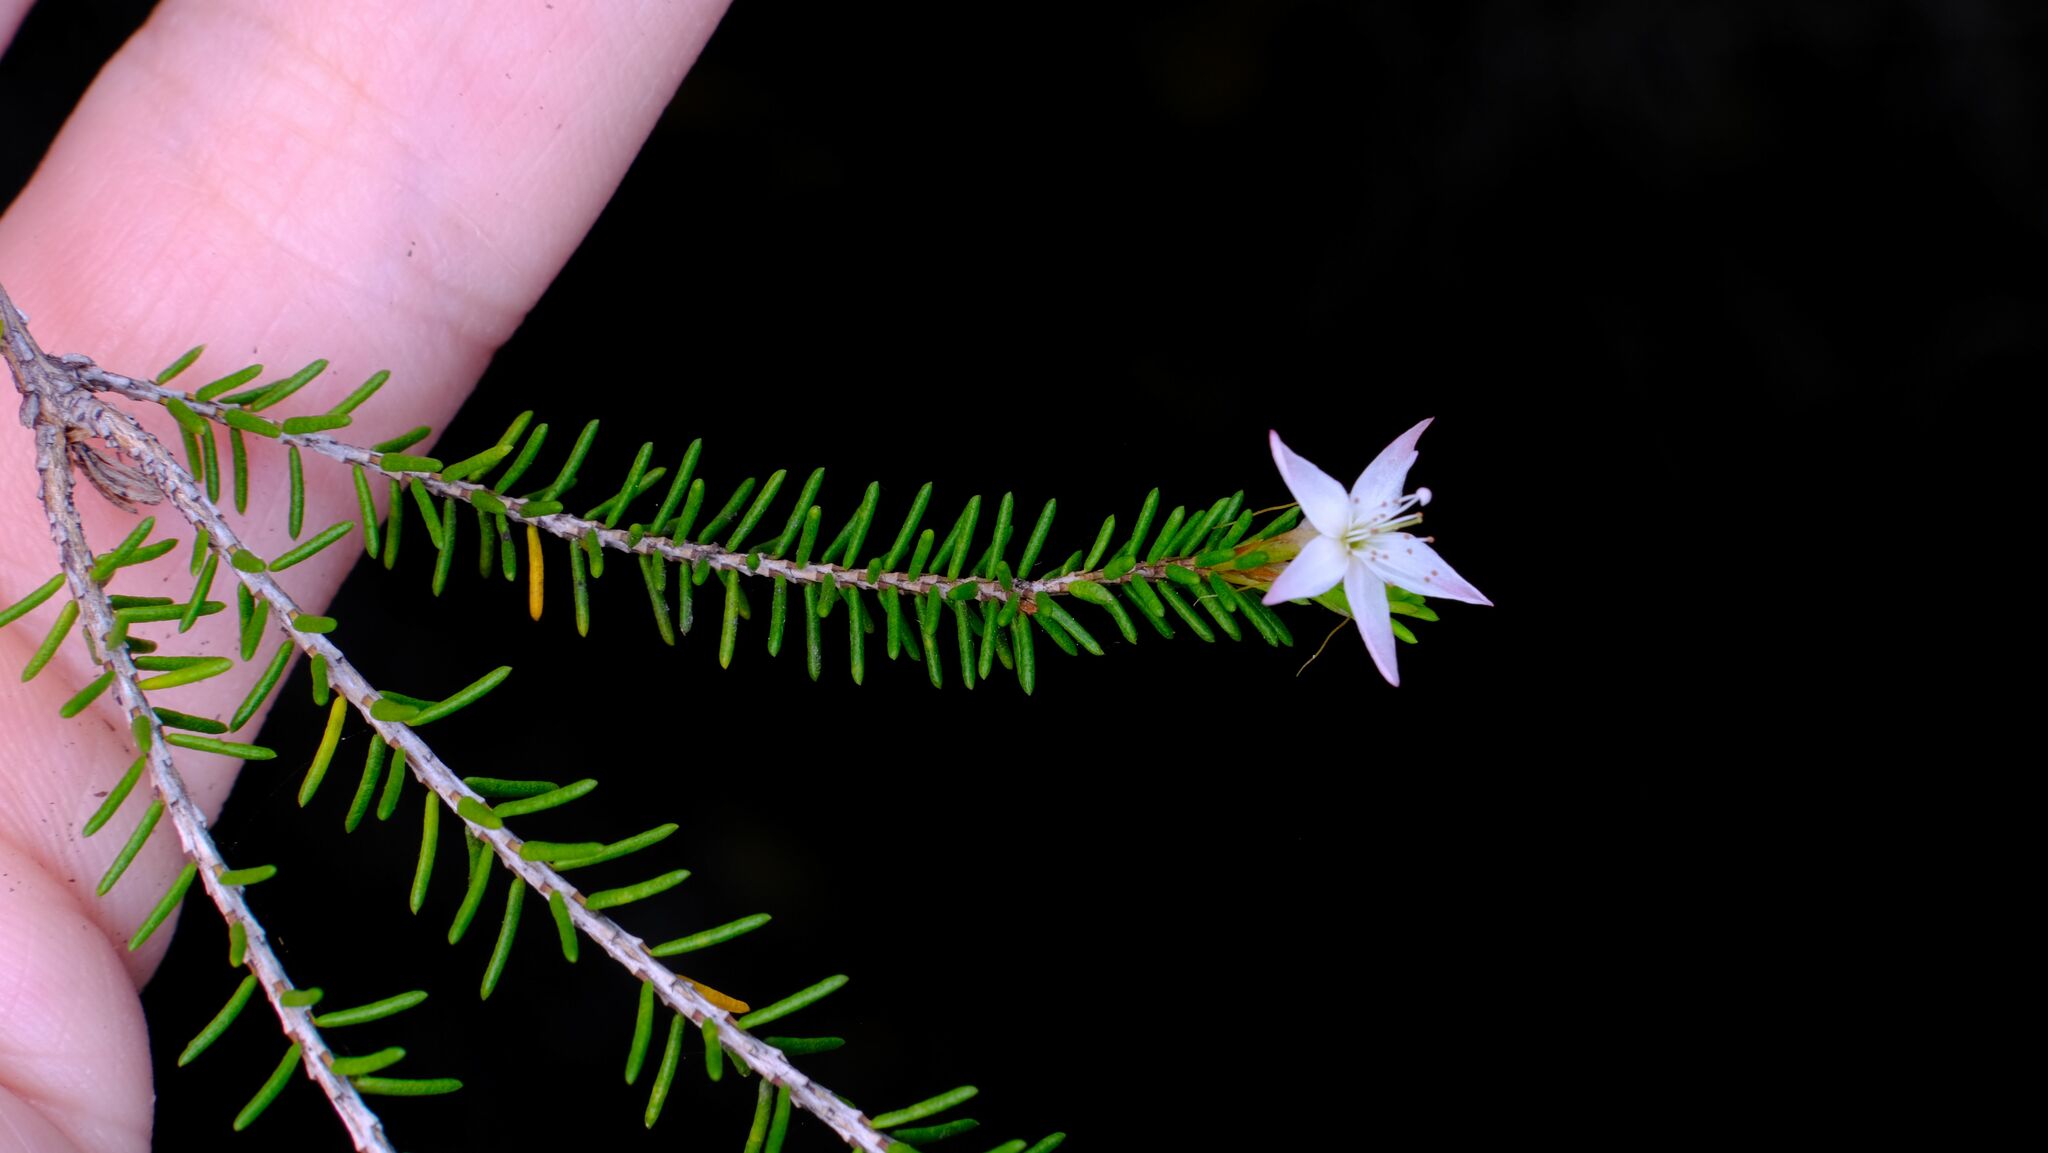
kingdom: Plantae
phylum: Tracheophyta
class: Magnoliopsida
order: Myrtales
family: Myrtaceae
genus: Calytrix
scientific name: Calytrix tetragona
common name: Common fringe myrtle
